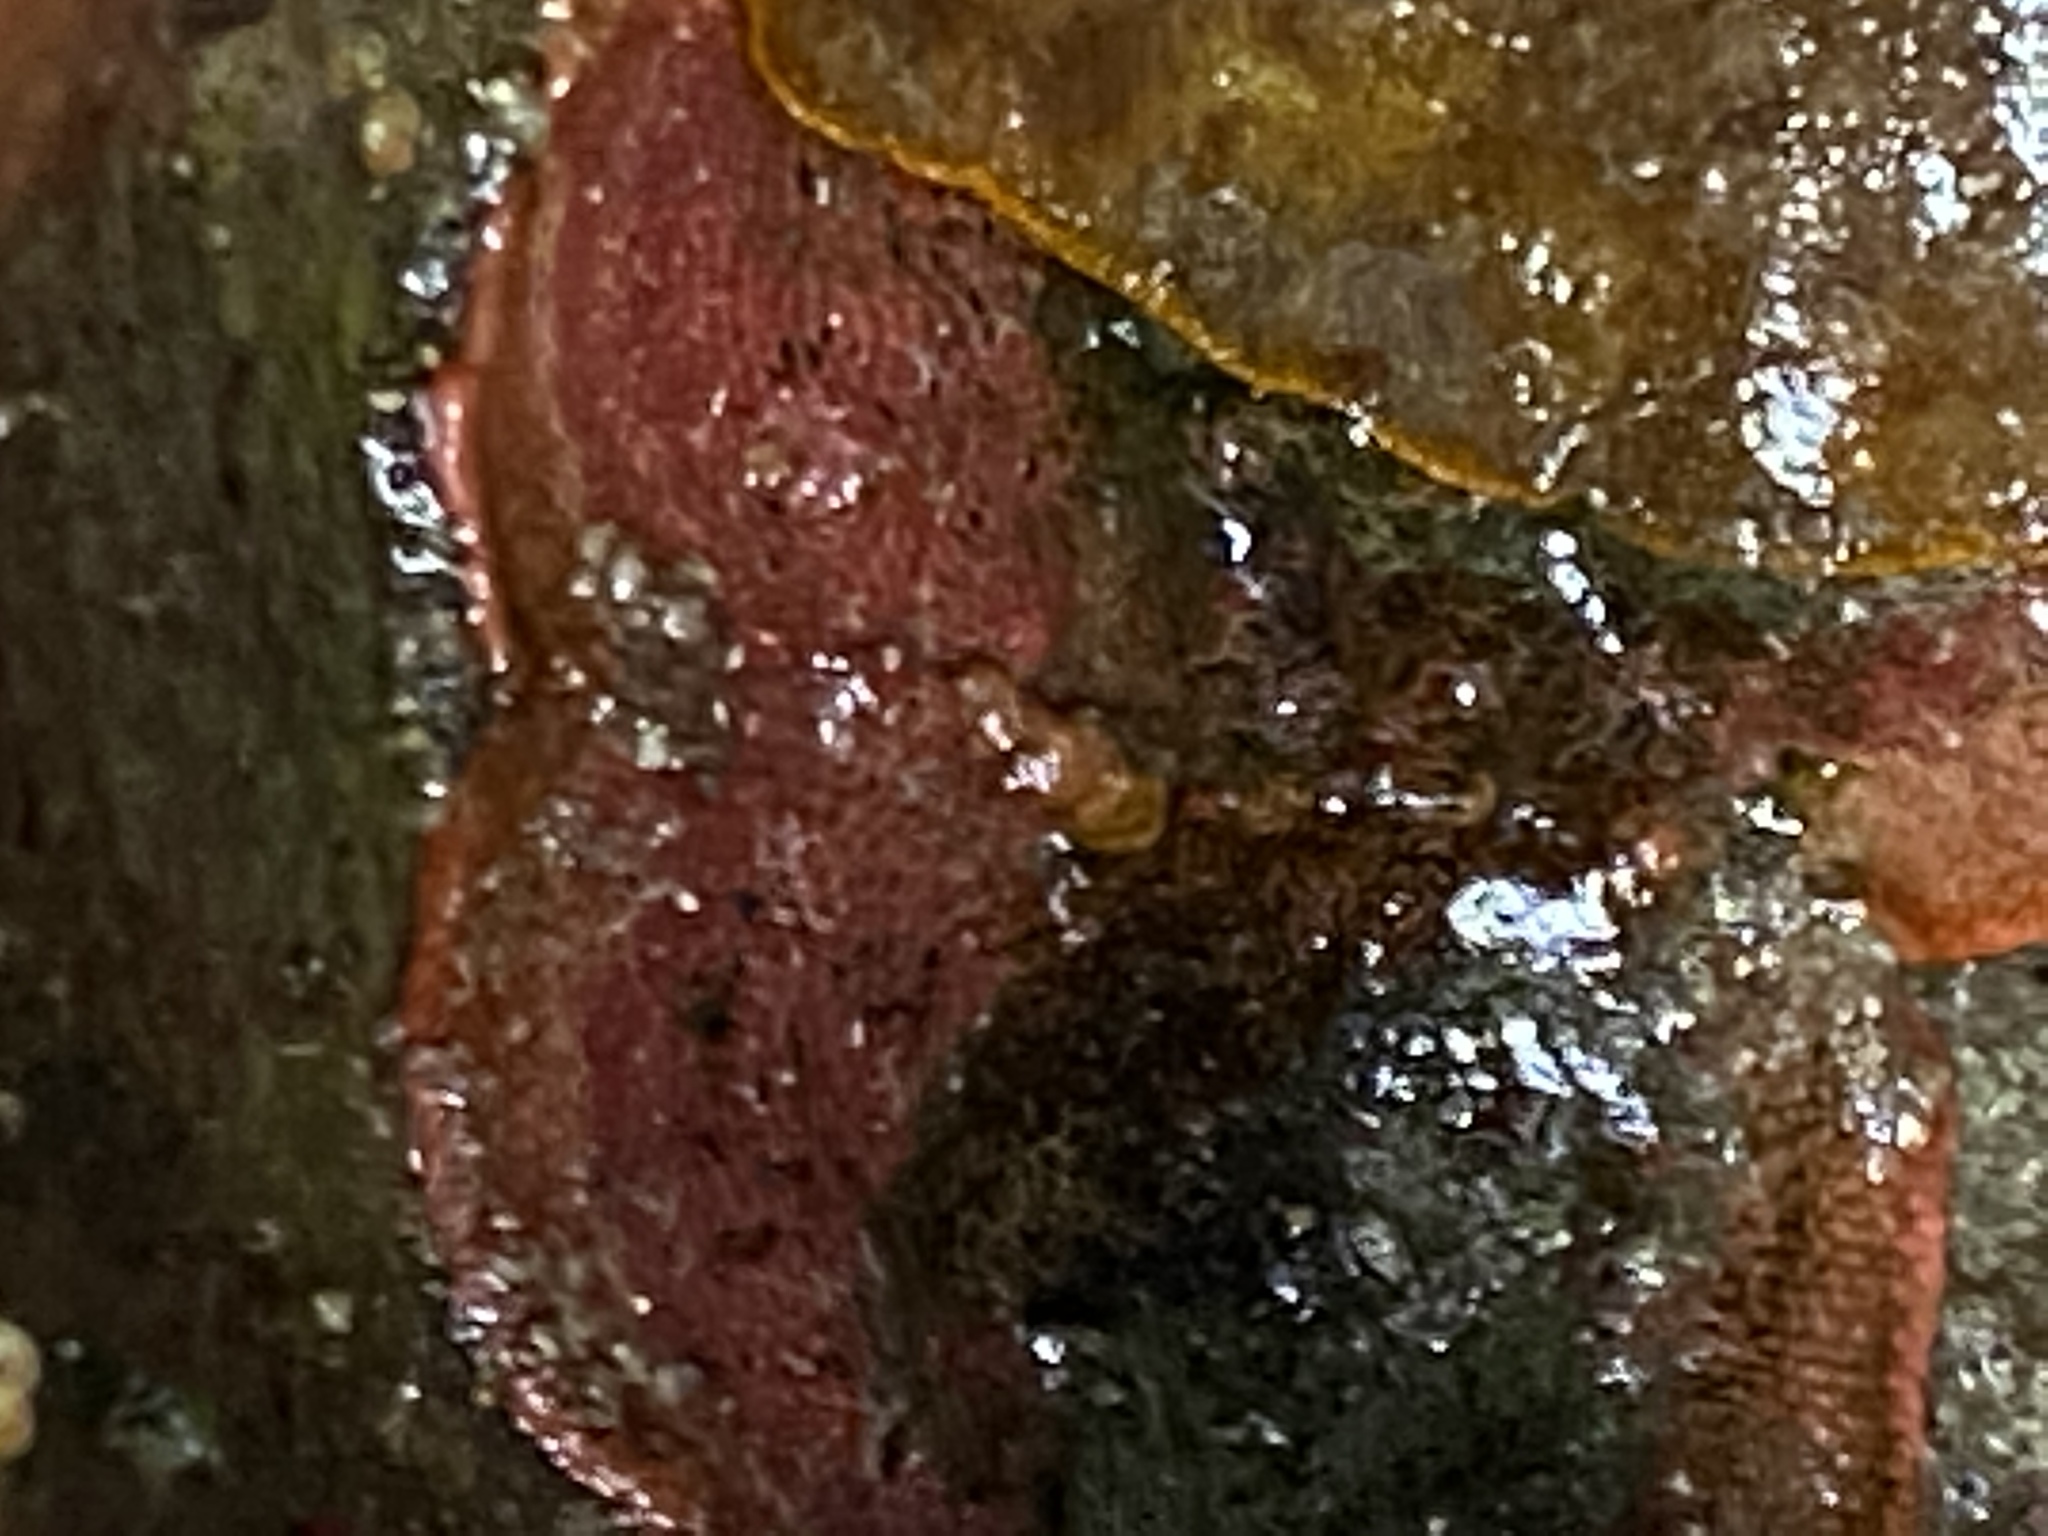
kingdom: Animalia
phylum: Bryozoa
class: Gymnolaemata
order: Cheilostomatida
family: Eurystomellidae
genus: Integripelta
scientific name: Integripelta bilabiata
